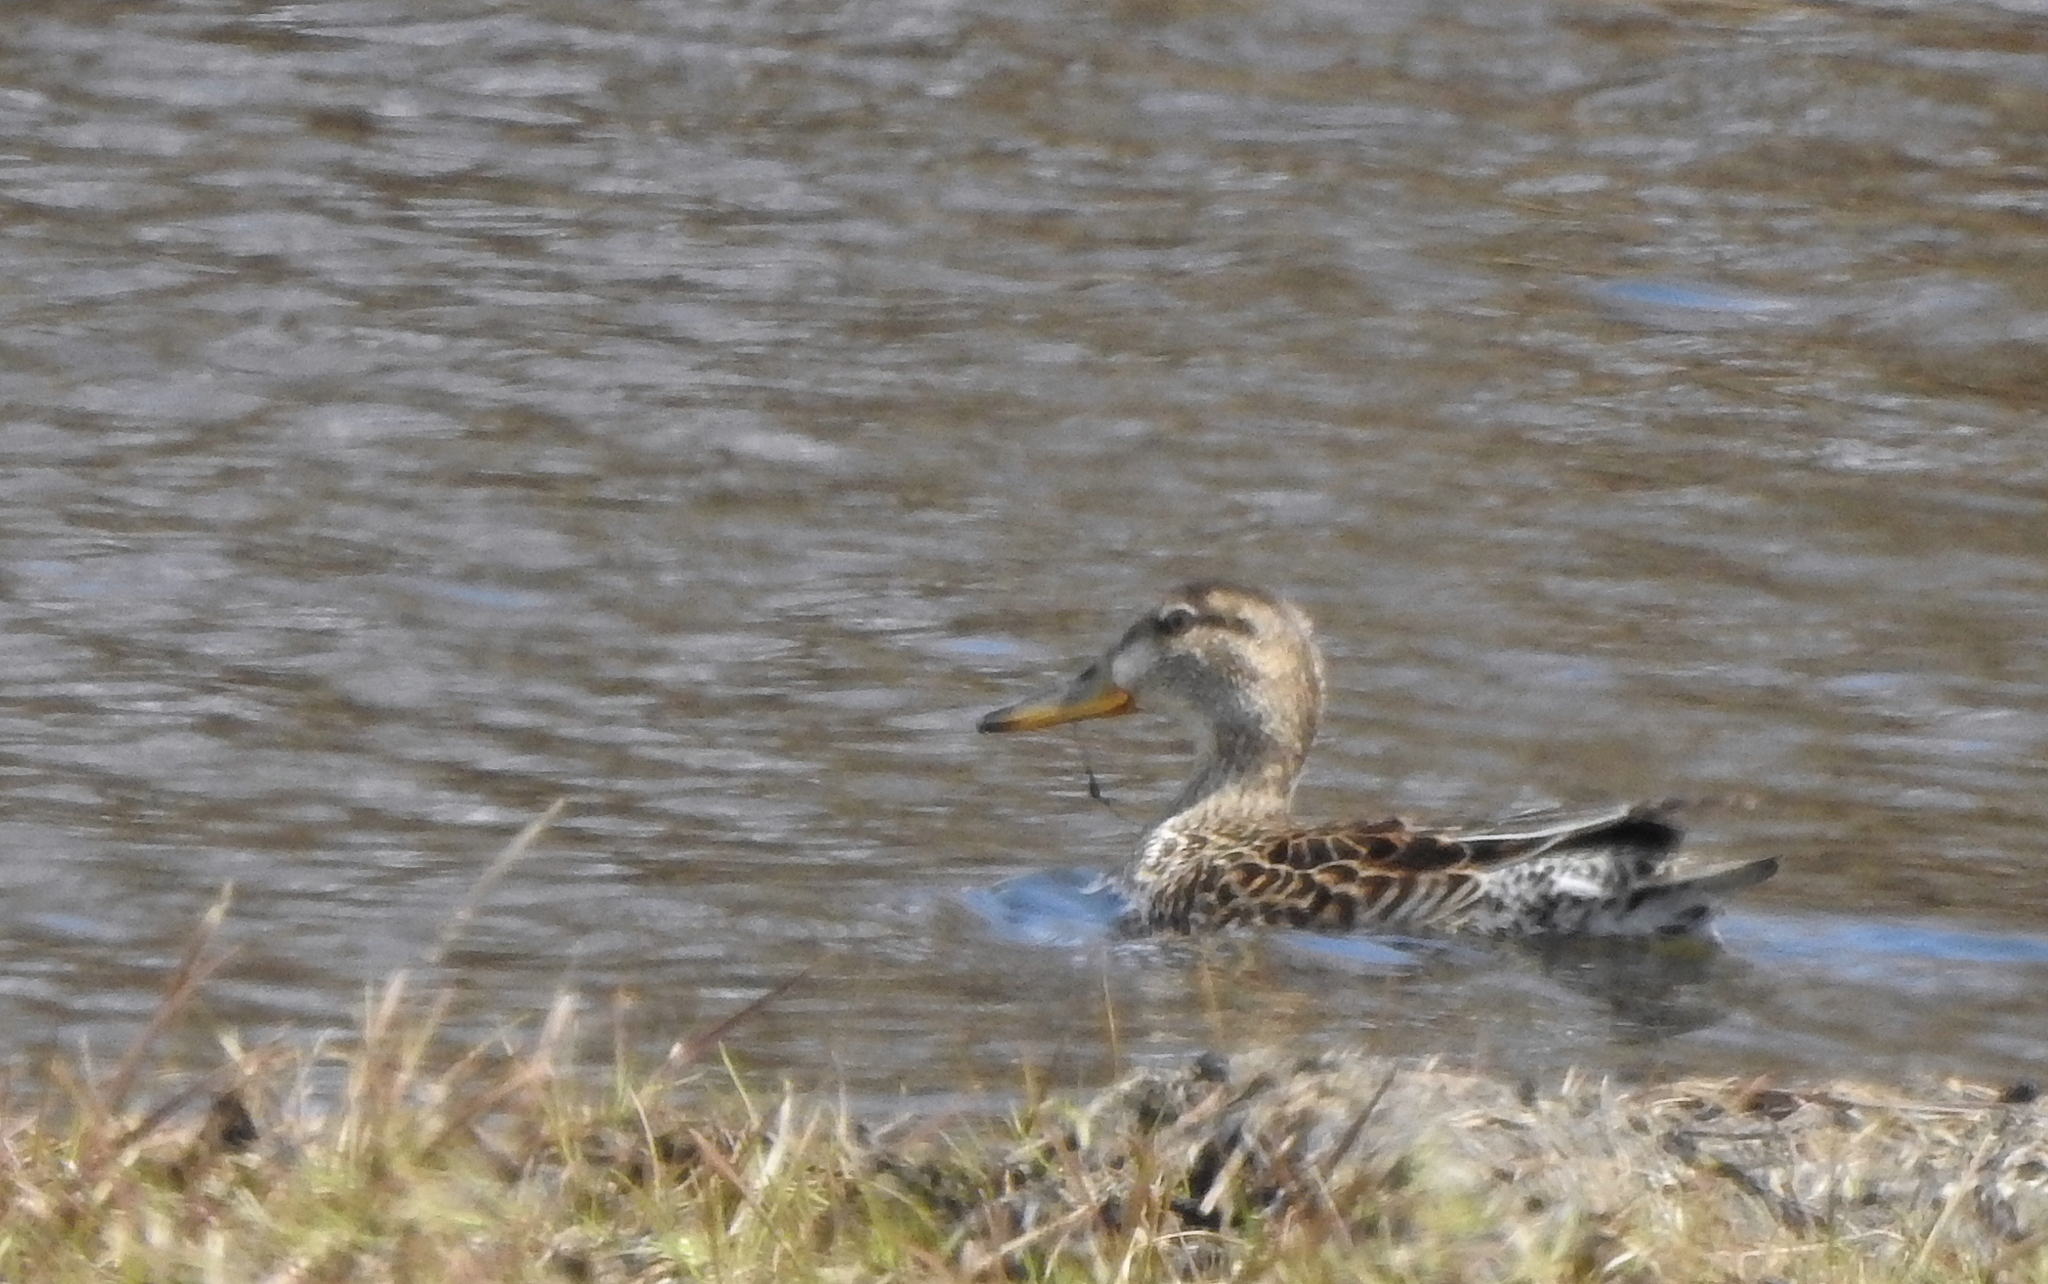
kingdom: Animalia
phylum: Chordata
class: Aves
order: Anseriformes
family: Anatidae
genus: Anas
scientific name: Anas platyrhynchos
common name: Mallard
